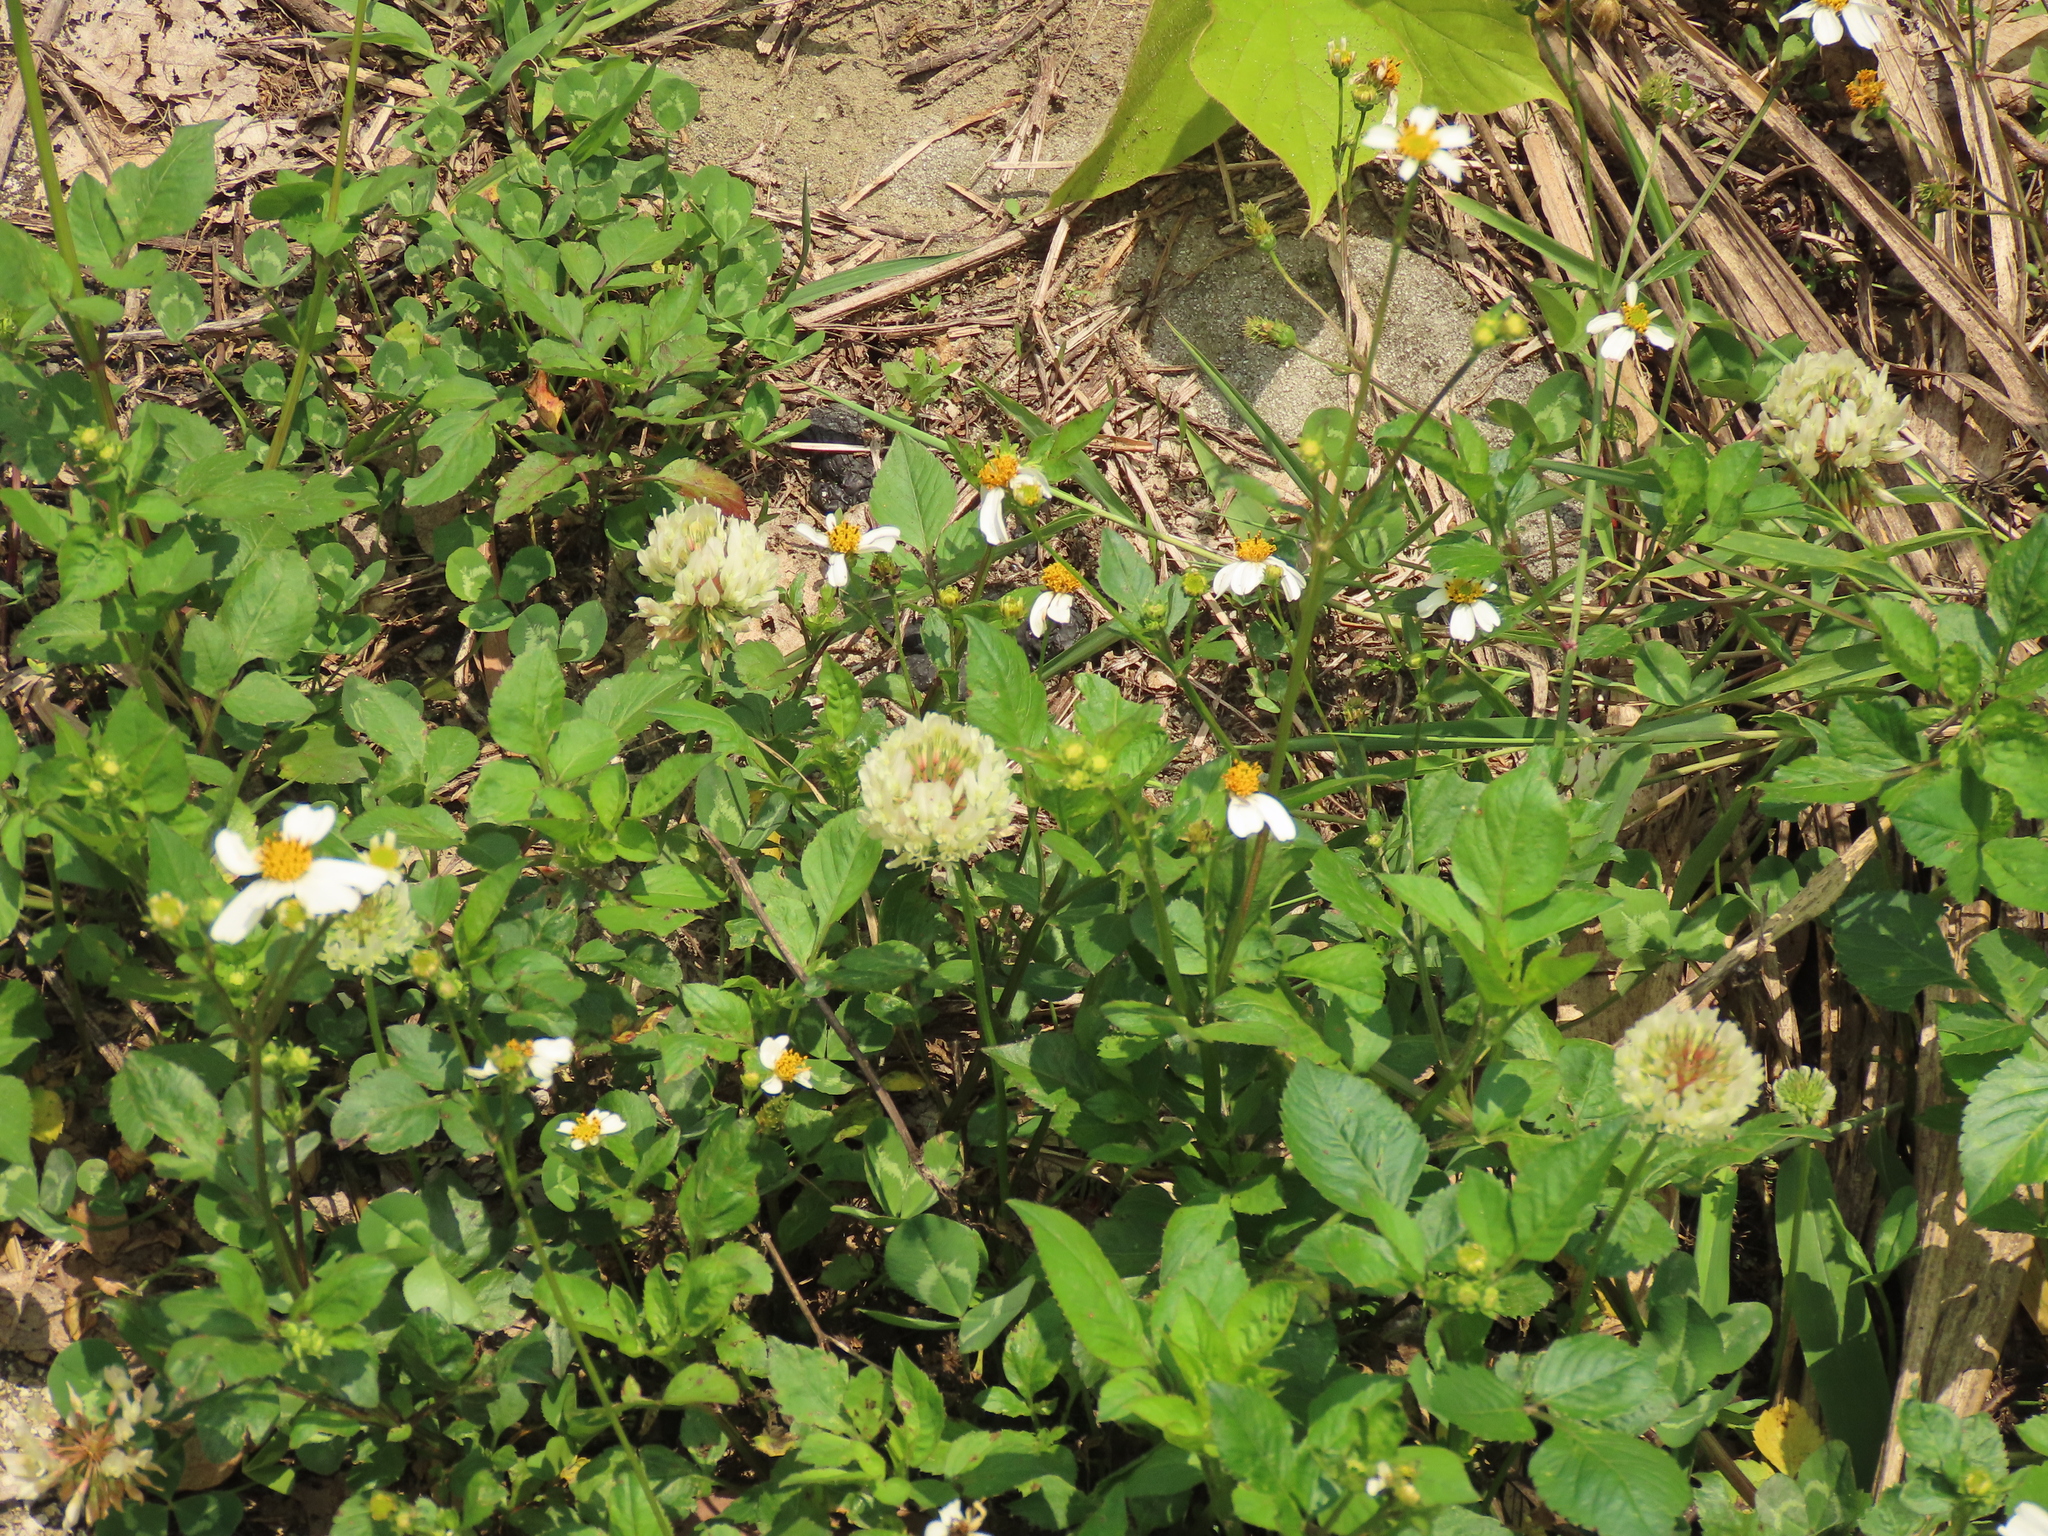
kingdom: Plantae
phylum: Tracheophyta
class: Magnoliopsida
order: Fabales
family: Fabaceae
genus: Trifolium
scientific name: Trifolium repens
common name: White clover
